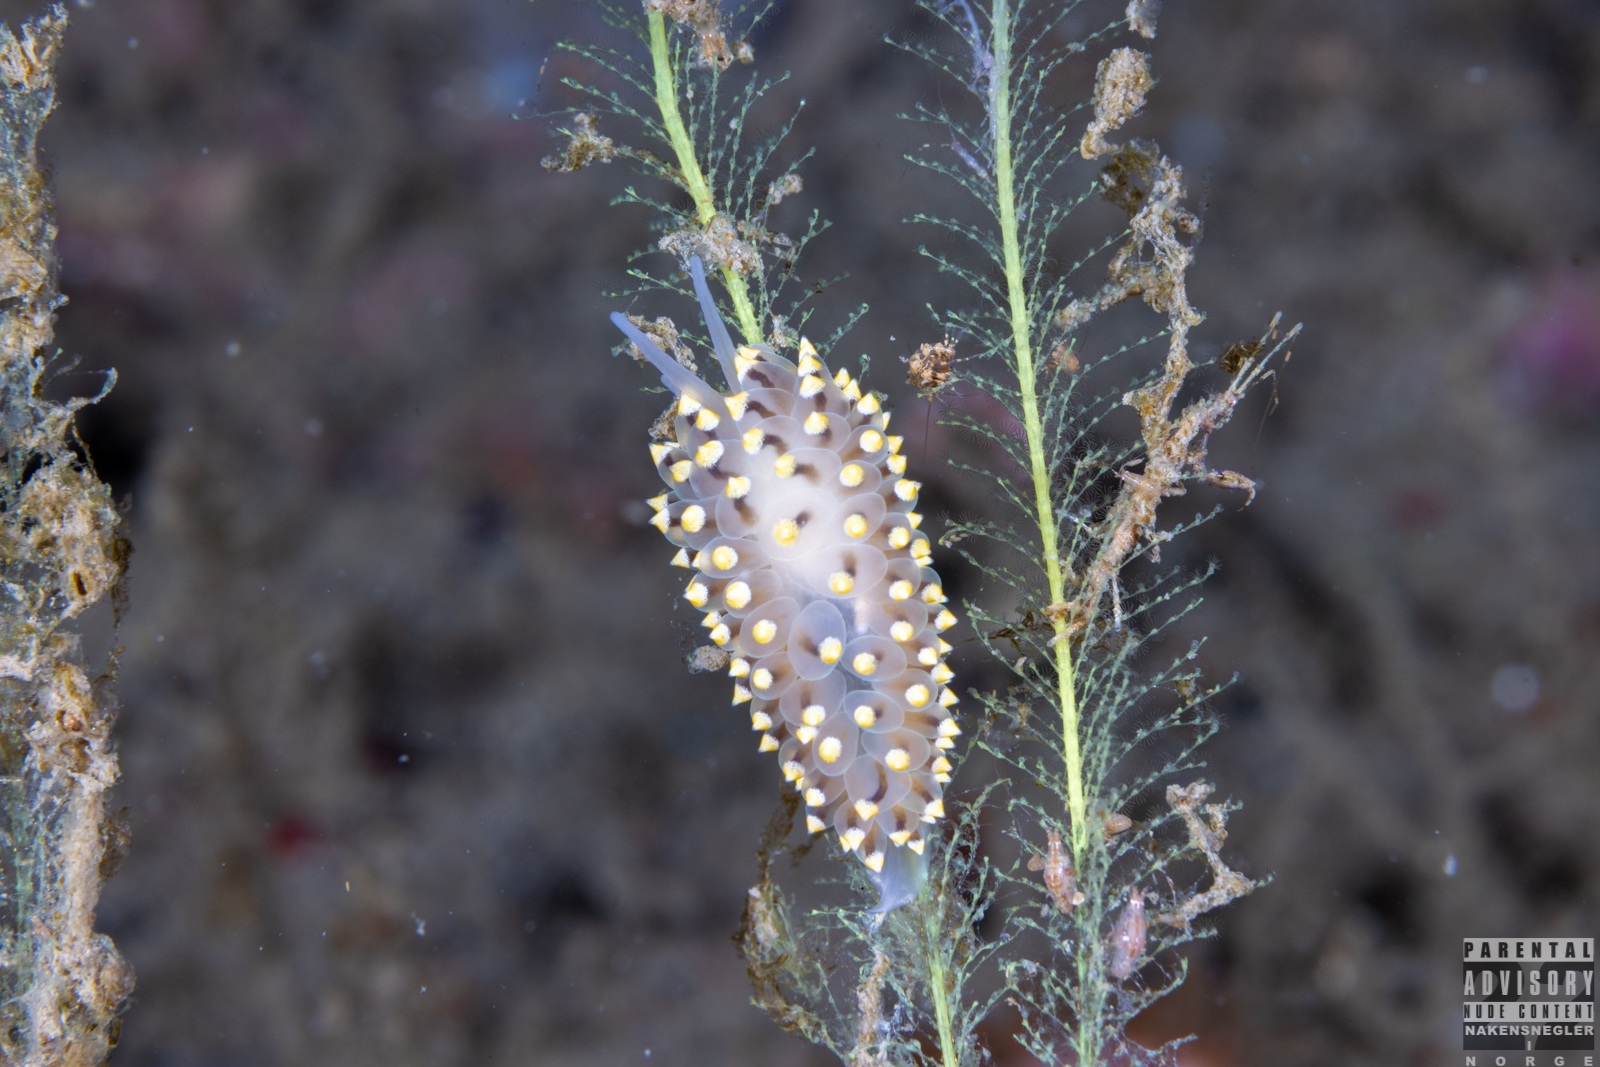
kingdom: Animalia
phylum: Mollusca
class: Gastropoda
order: Nudibranchia
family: Eubranchidae
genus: Eubranchus
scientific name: Eubranchus tricolor
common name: Painted balloon aeolis
